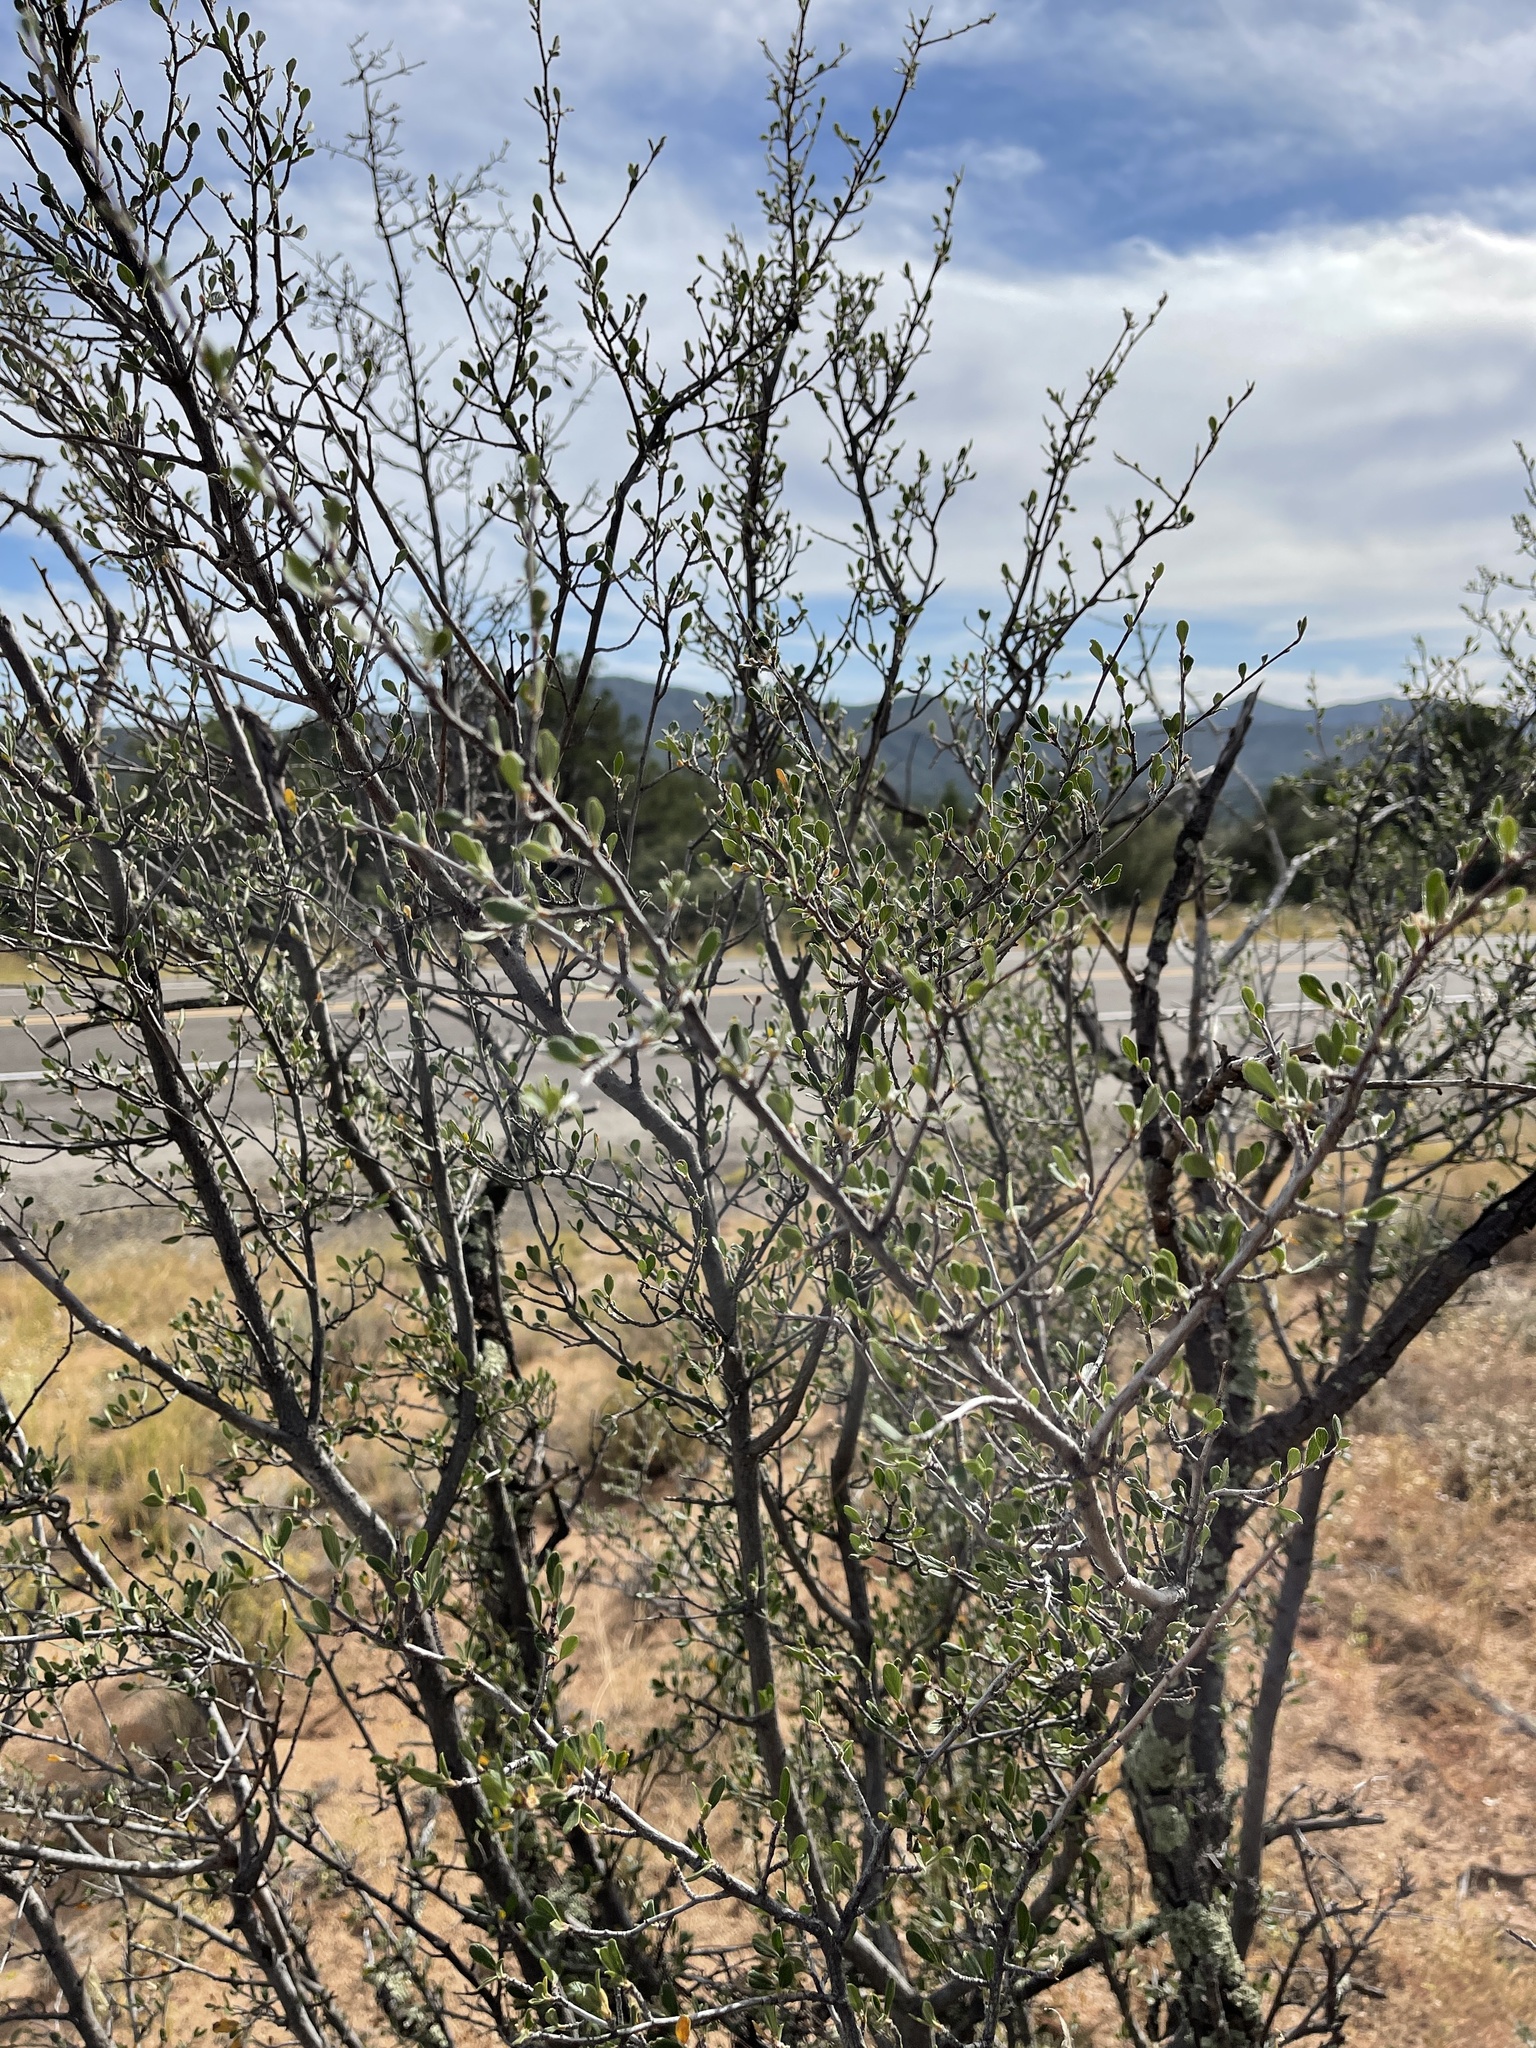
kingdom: Plantae
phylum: Tracheophyta
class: Magnoliopsida
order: Rosales
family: Rosaceae
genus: Cercocarpus
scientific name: Cercocarpus breviflorus
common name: Wright's mountain-mahogany
